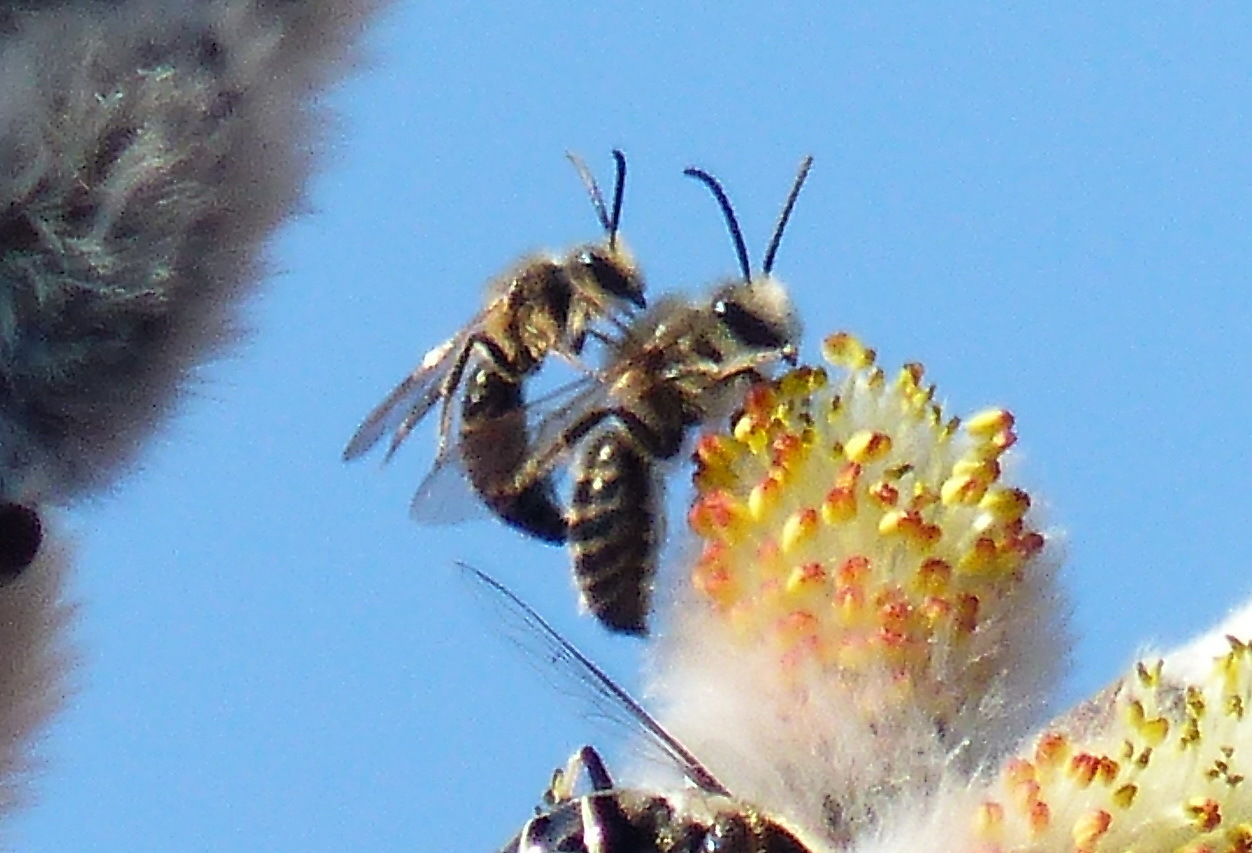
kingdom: Animalia
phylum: Arthropoda
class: Insecta
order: Hymenoptera
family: Colletidae
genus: Colletes
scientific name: Colletes inaequalis
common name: Unequal cellophane bee
